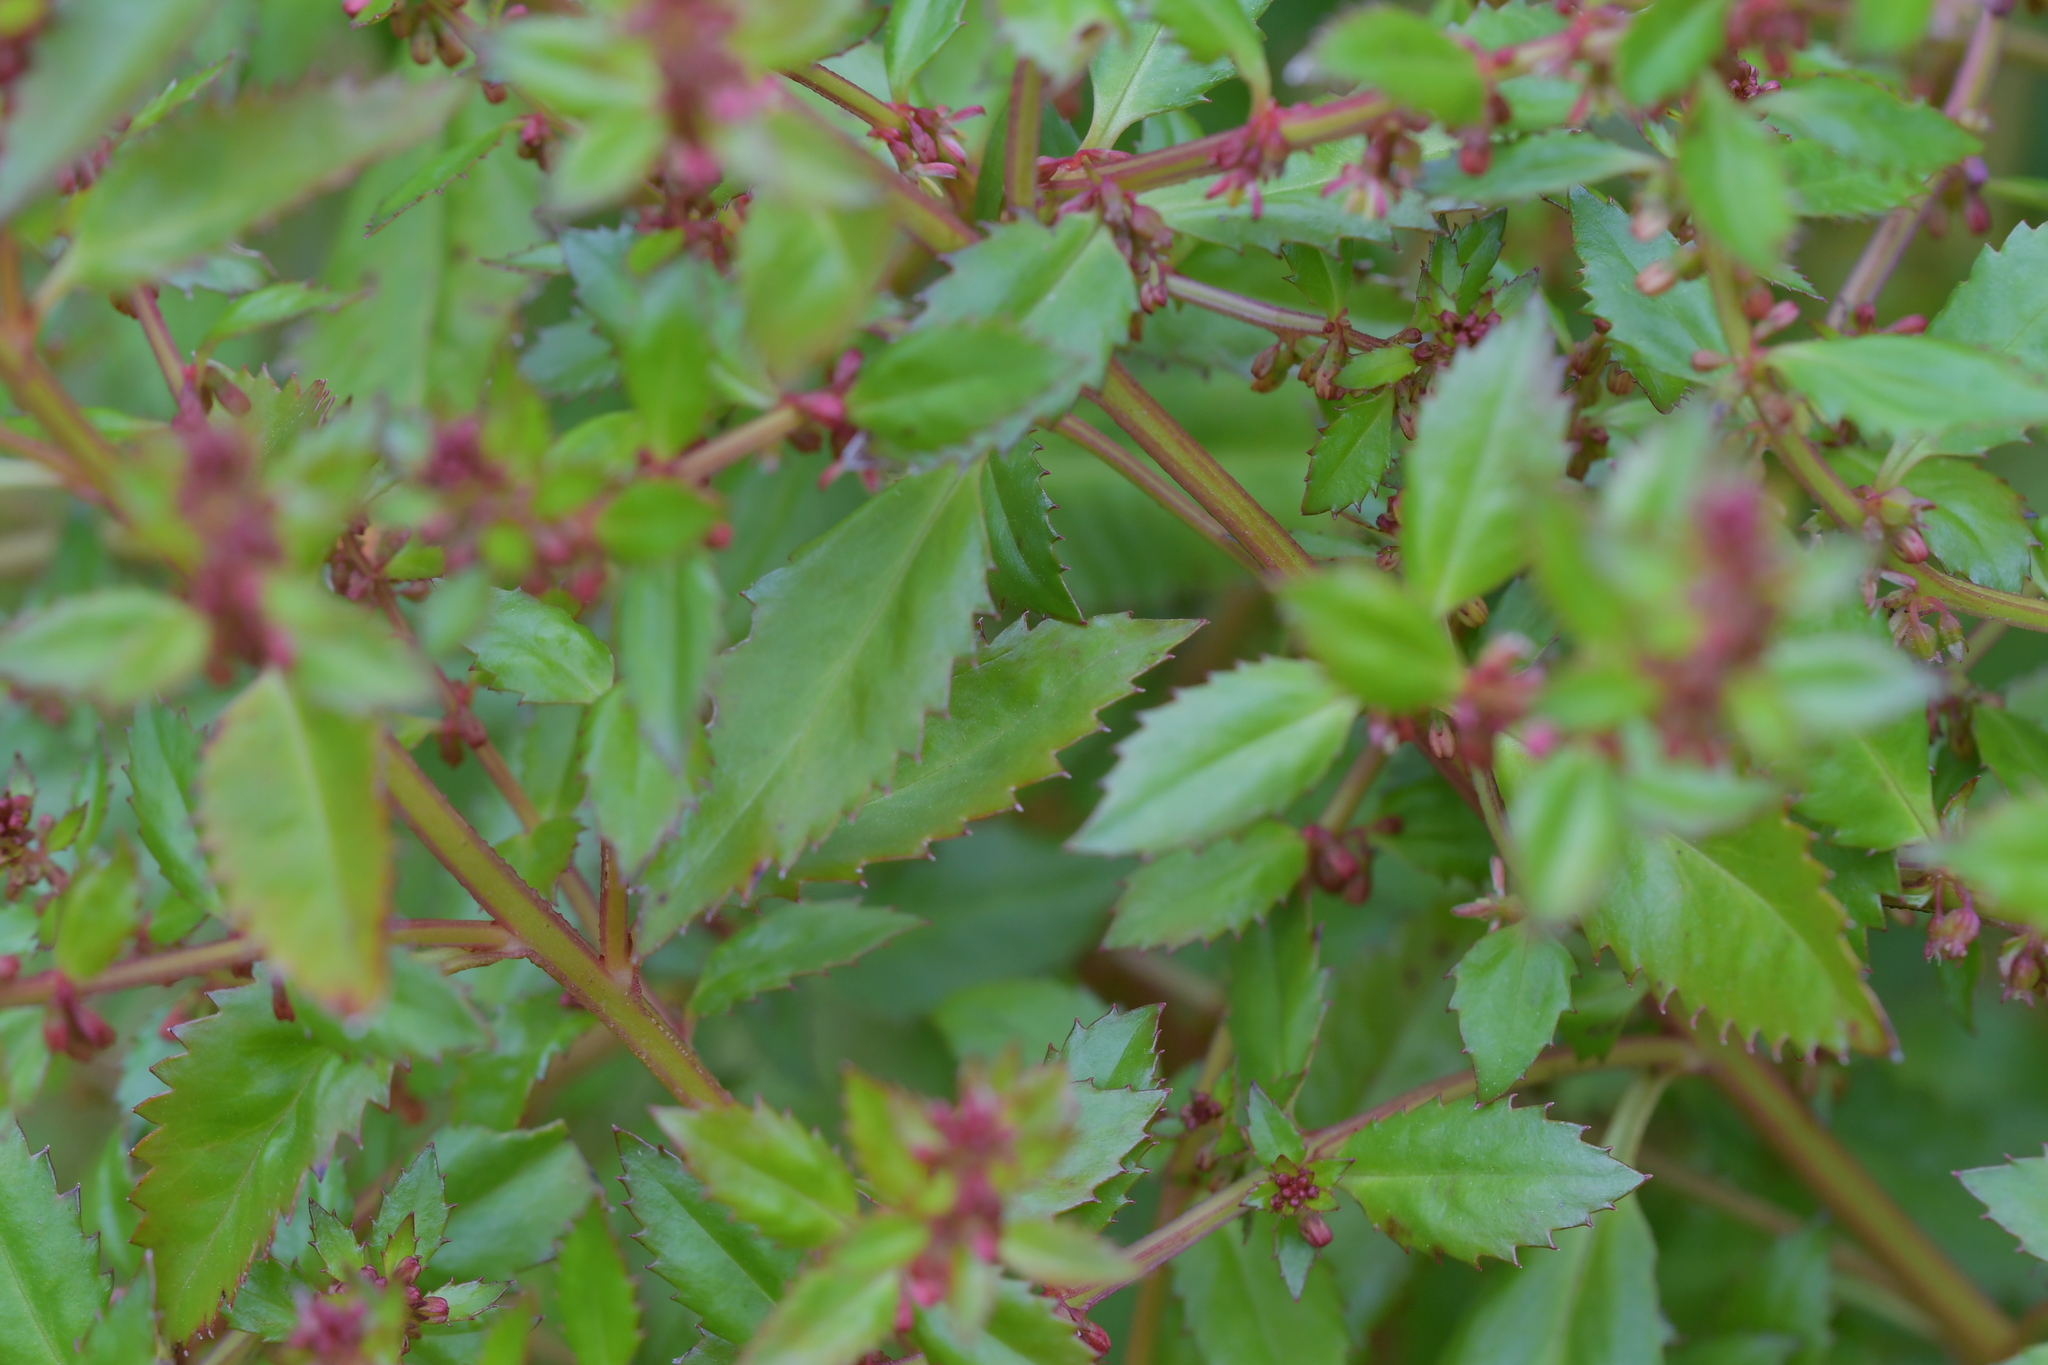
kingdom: Plantae
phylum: Tracheophyta
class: Magnoliopsida
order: Saxifragales
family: Haloragaceae
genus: Haloragis
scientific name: Haloragis erecta
